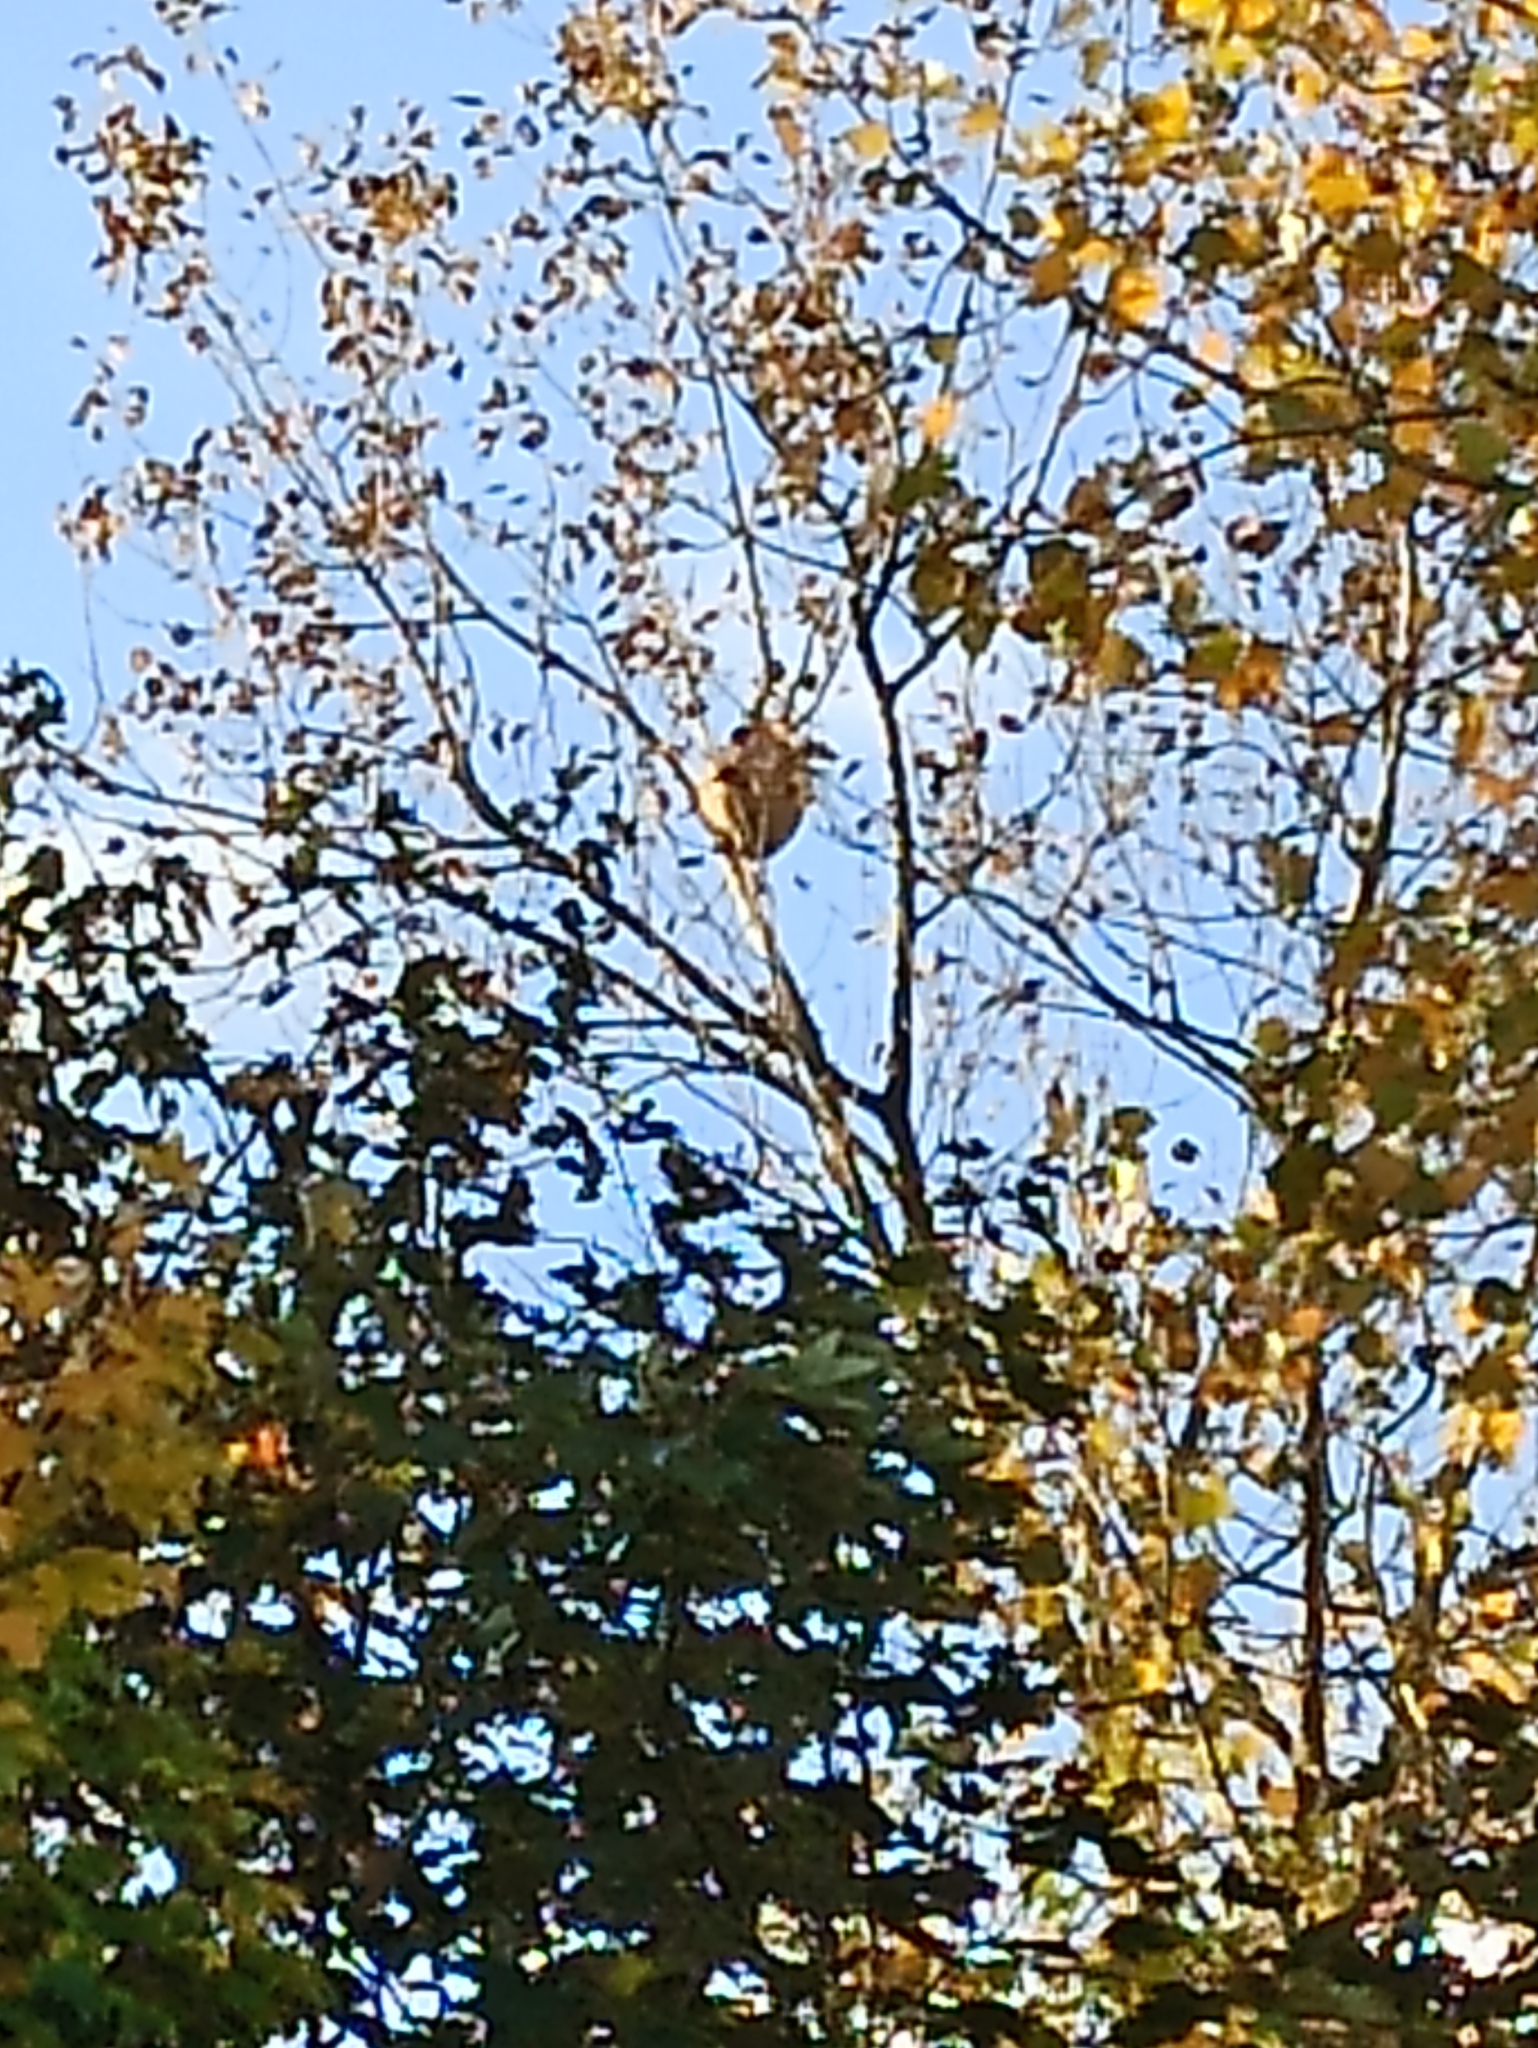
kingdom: Animalia
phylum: Arthropoda
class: Insecta
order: Hymenoptera
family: Vespidae
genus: Vespa
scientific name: Vespa velutina
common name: Asian hornet
